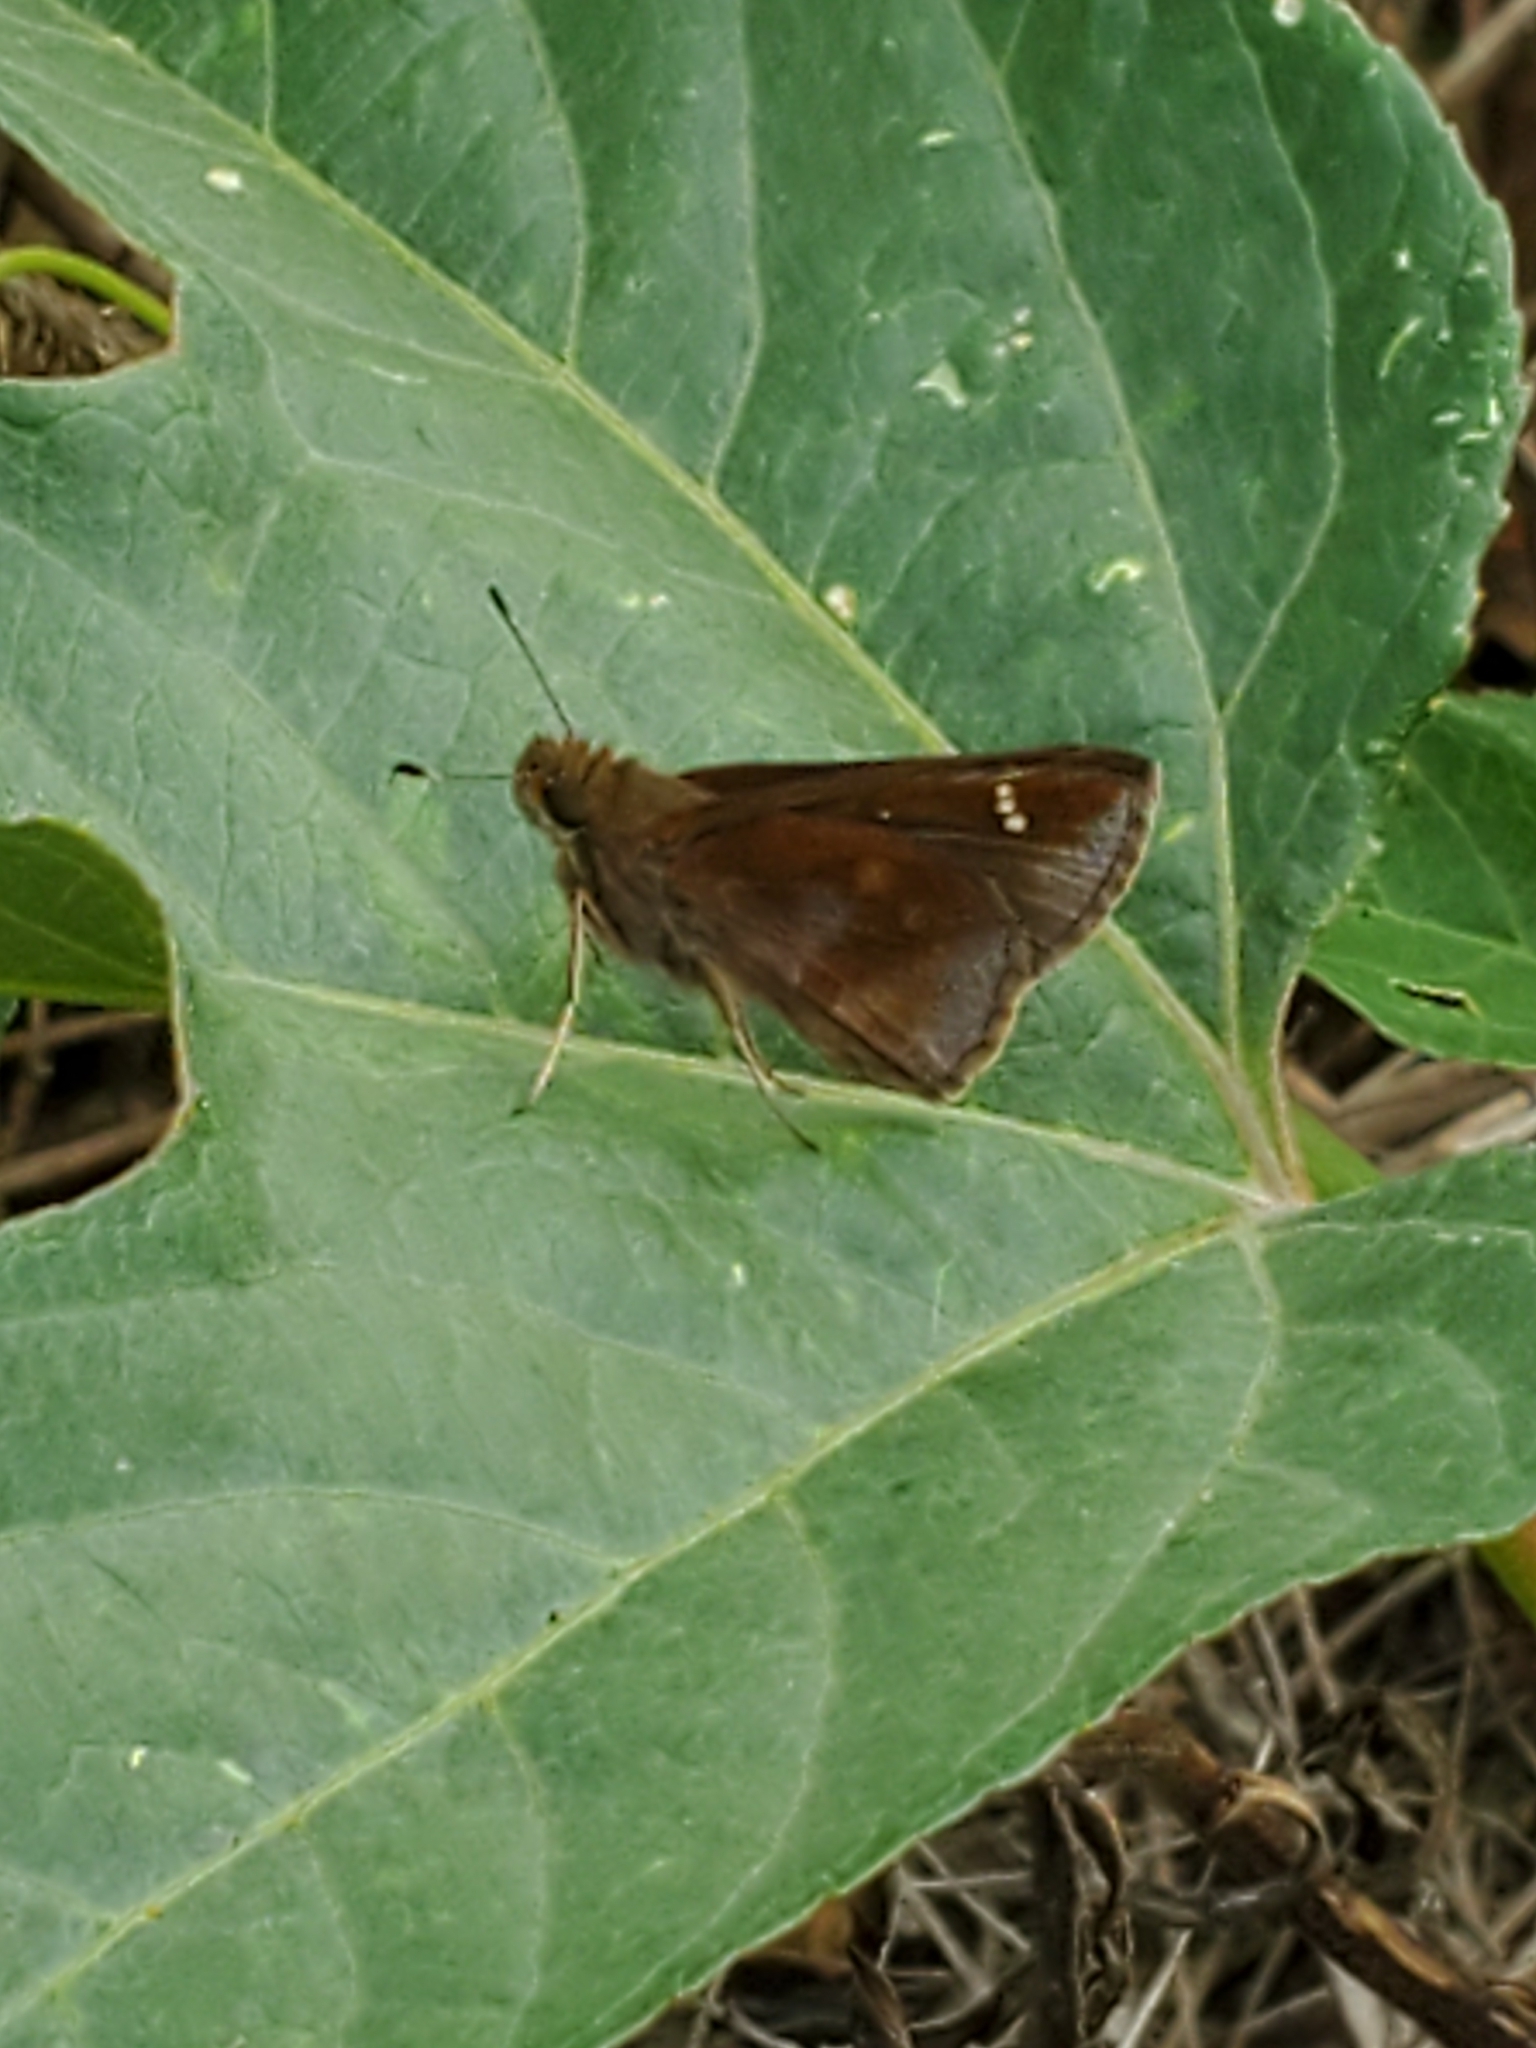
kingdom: Animalia
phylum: Arthropoda
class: Insecta
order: Lepidoptera
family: Hesperiidae
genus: Lerema
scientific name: Lerema accius
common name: Clouded skipper
